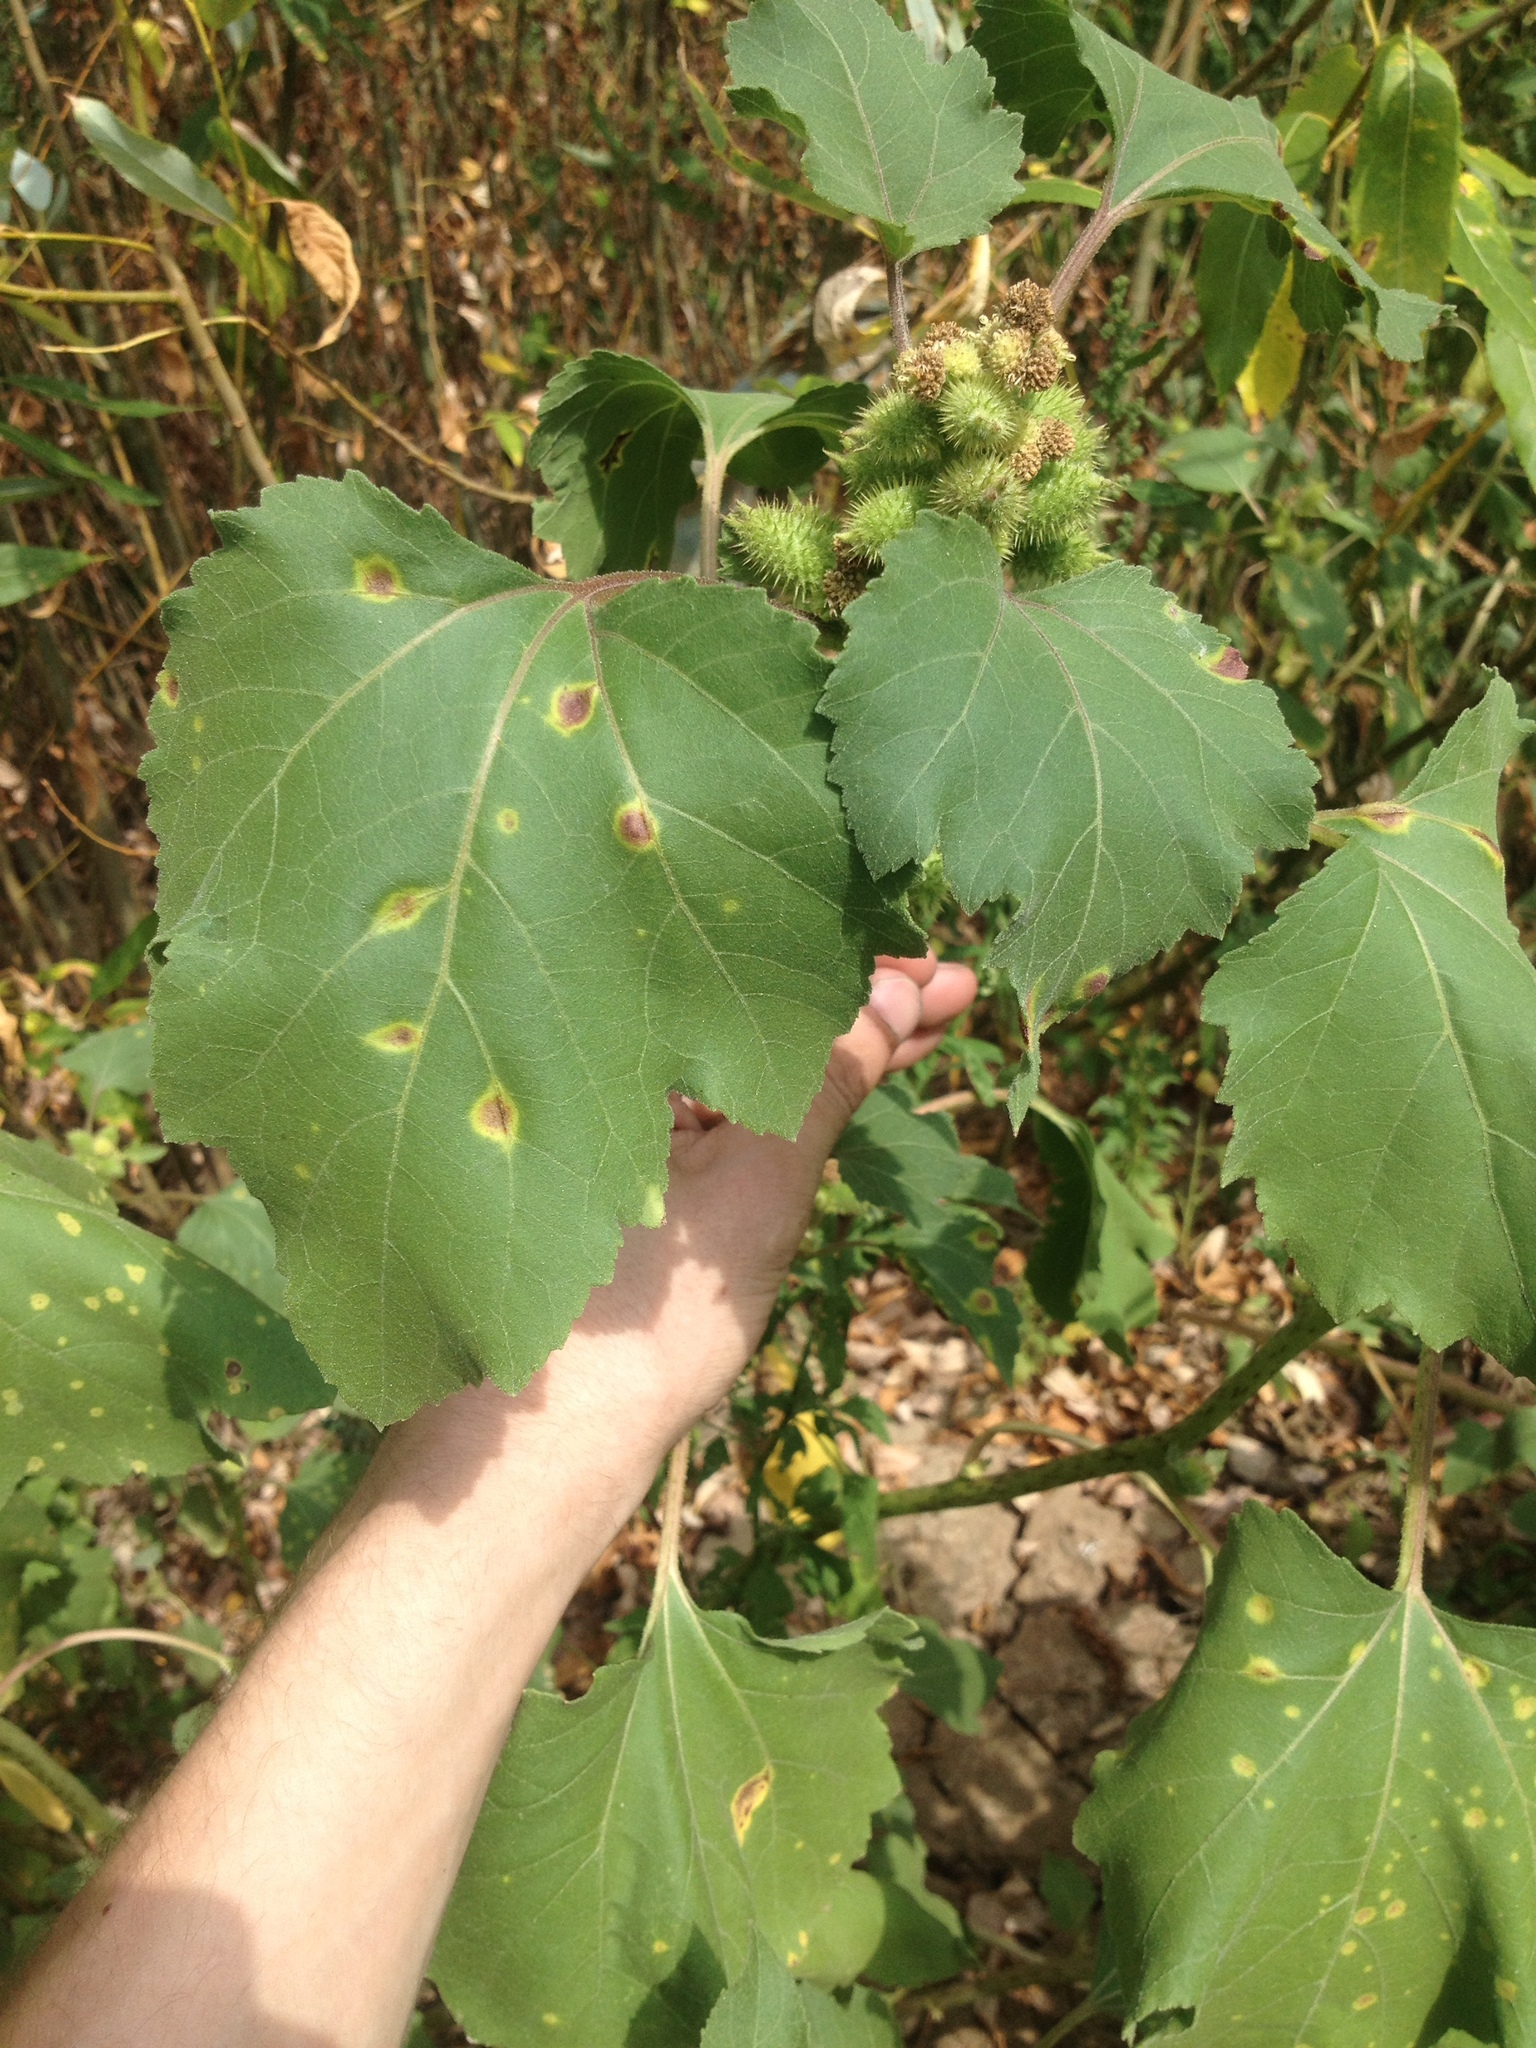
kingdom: Plantae
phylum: Tracheophyta
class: Magnoliopsida
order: Asterales
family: Asteraceae
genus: Xanthium
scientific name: Xanthium orientale
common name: Californian burr
